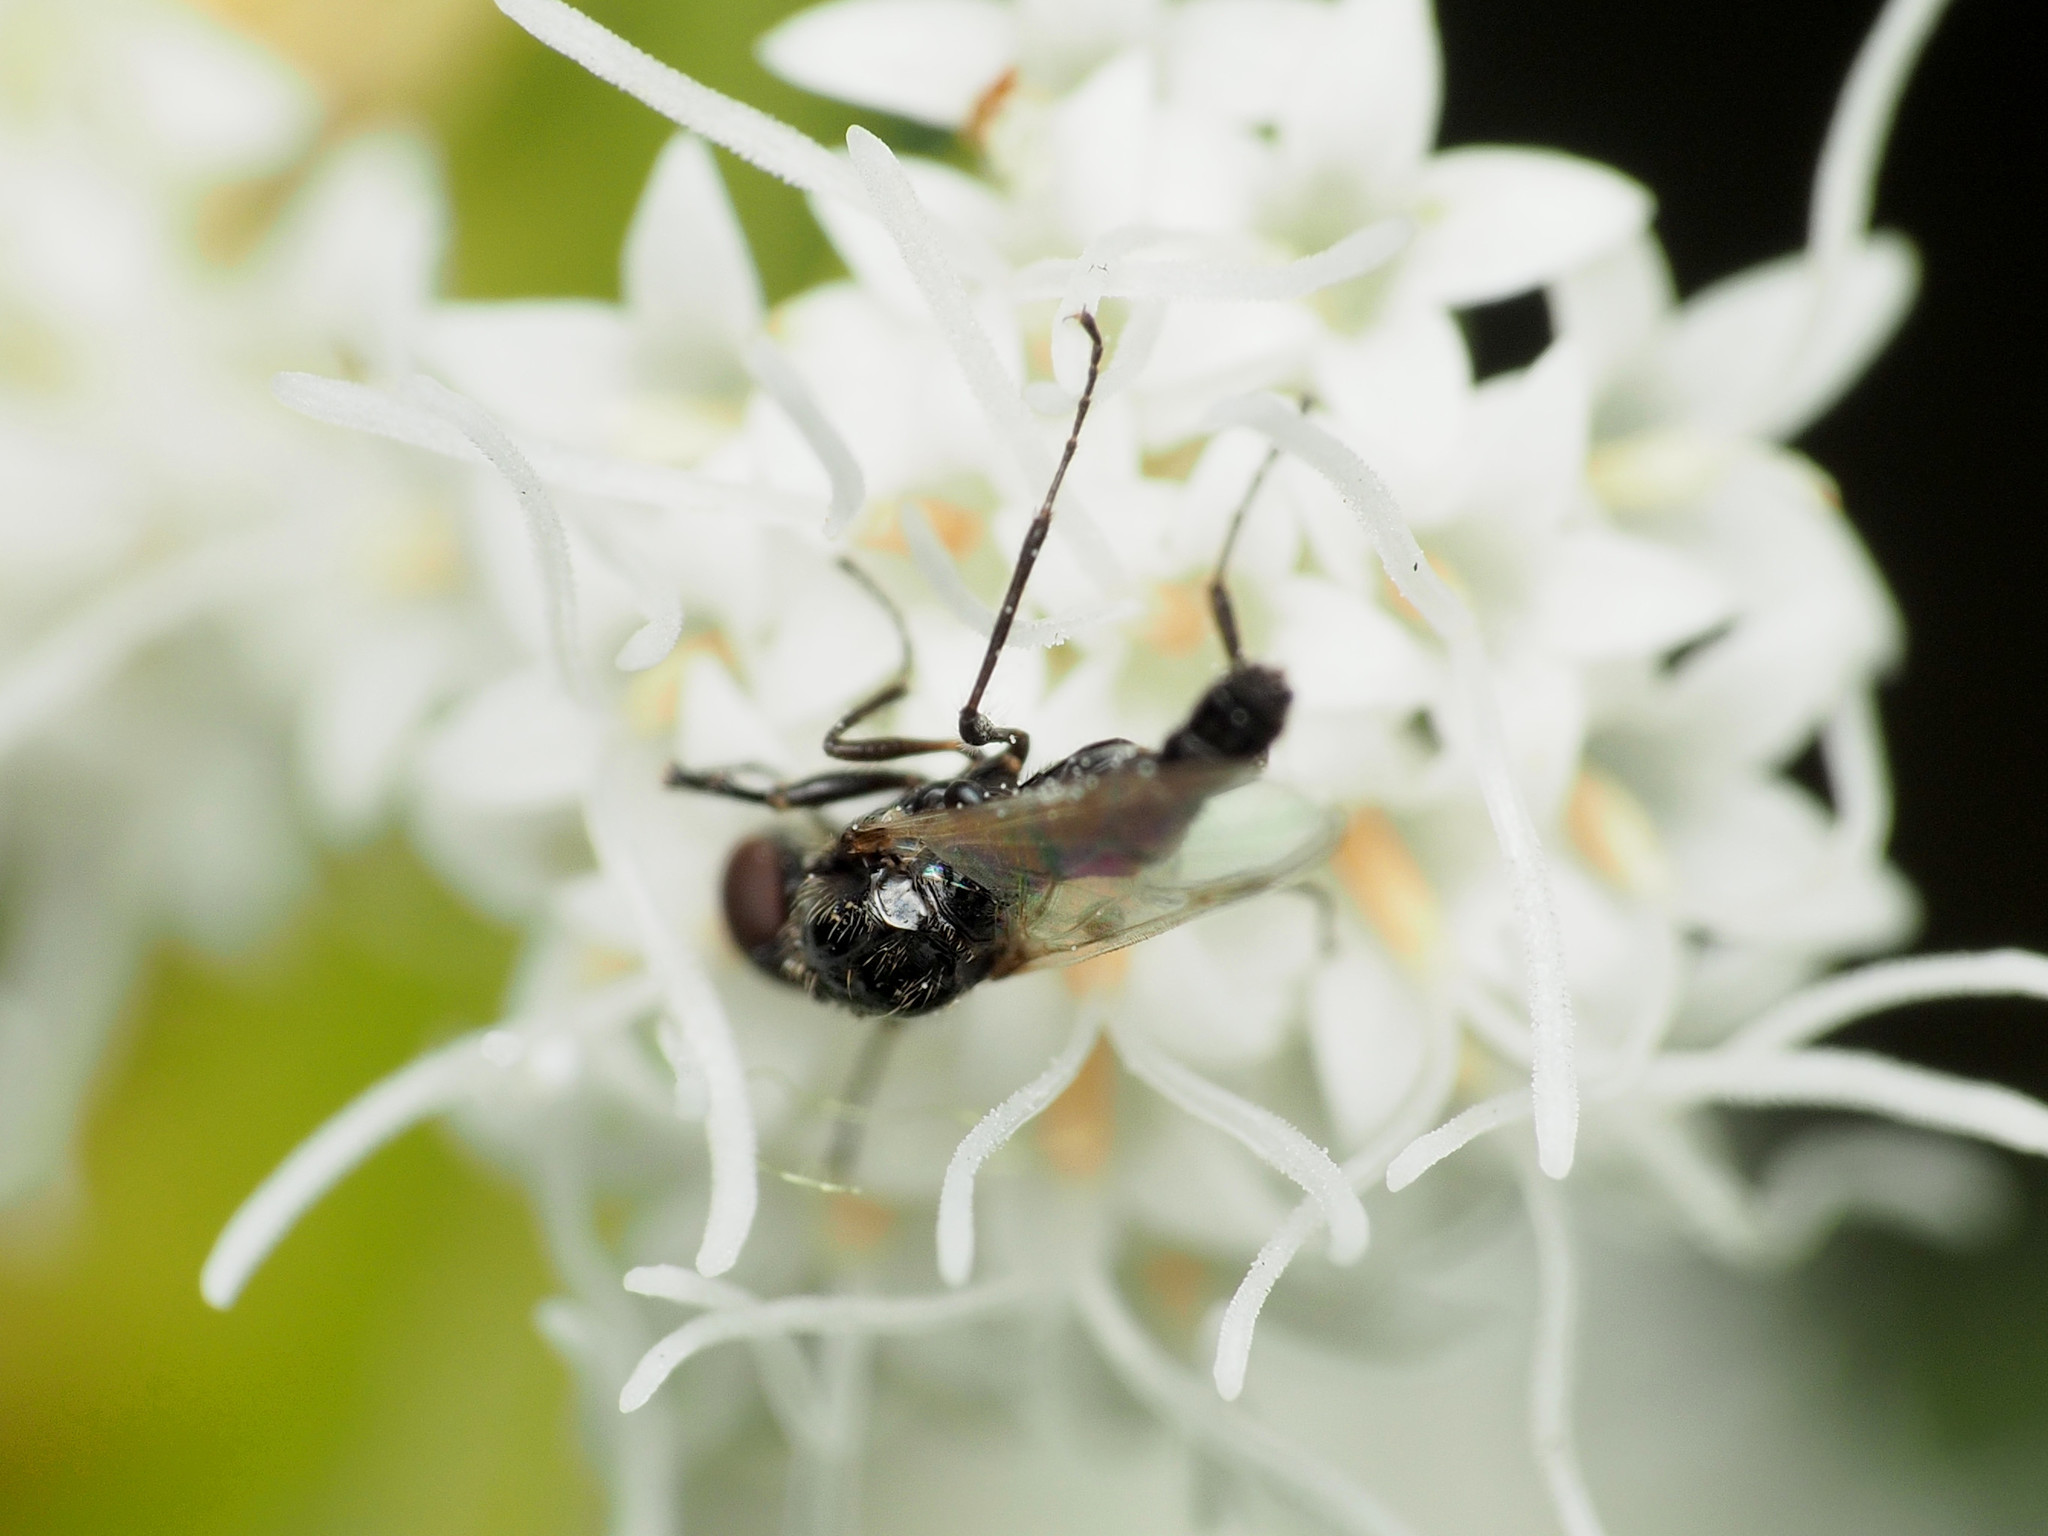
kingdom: Animalia
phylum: Arthropoda
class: Insecta
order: Diptera
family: Bibionidae
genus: Dilophus
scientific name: Dilophus
